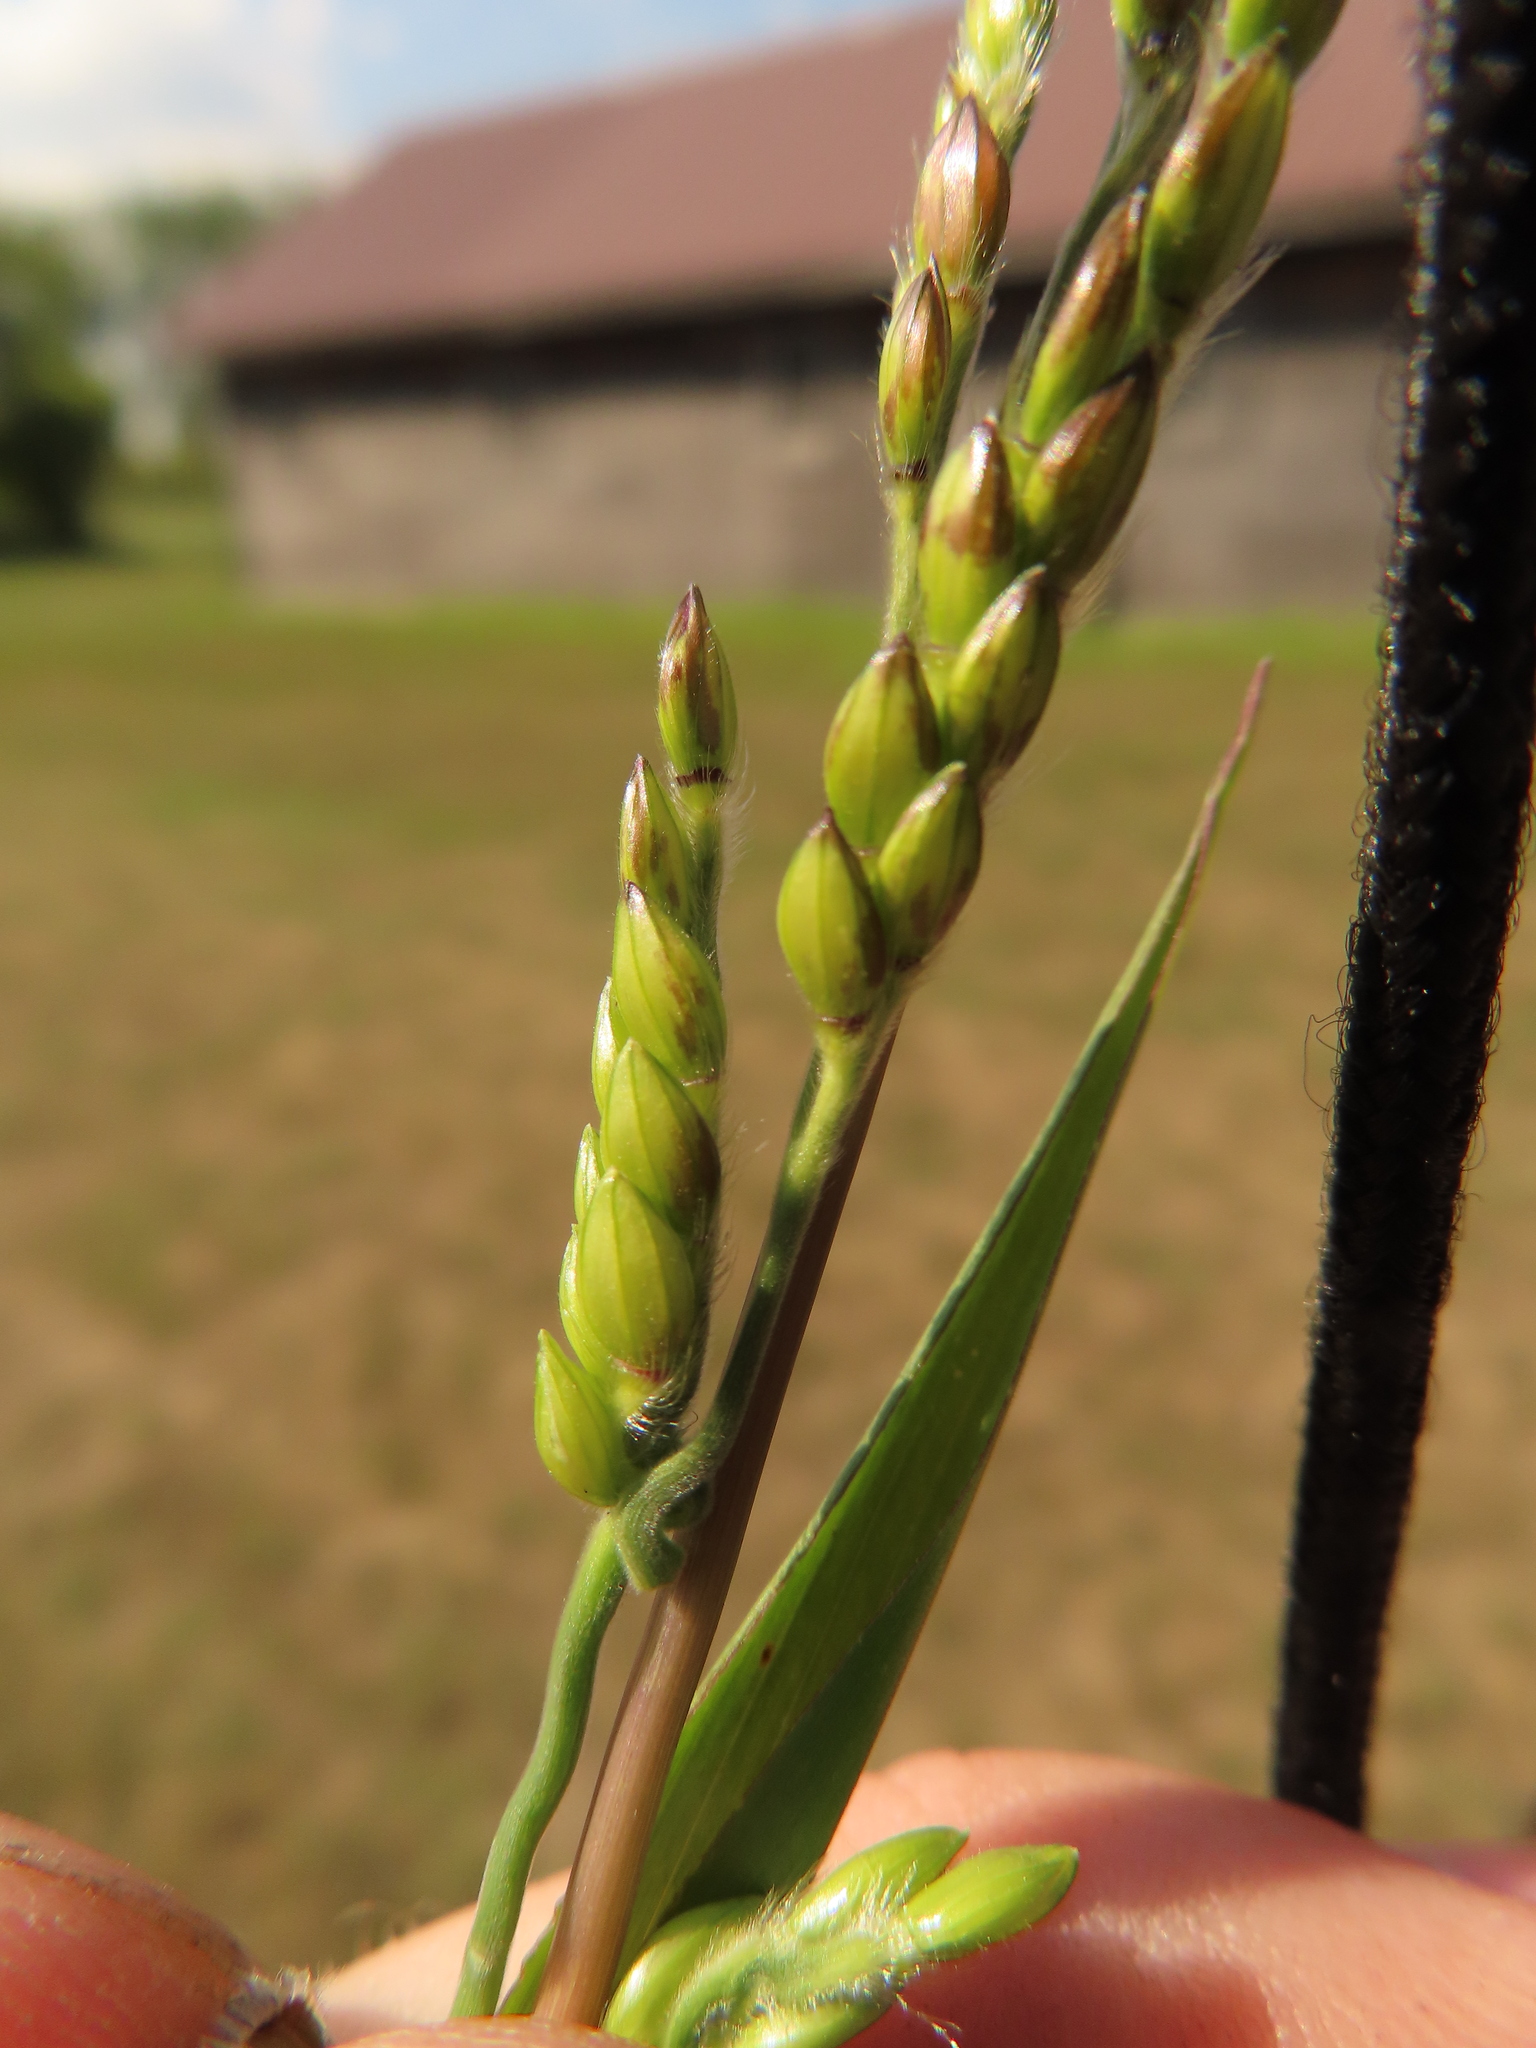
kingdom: Plantae
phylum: Tracheophyta
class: Liliopsida
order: Poales
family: Poaceae
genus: Eriochloa
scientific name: Eriochloa villosa
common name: Hairy cupgrass
